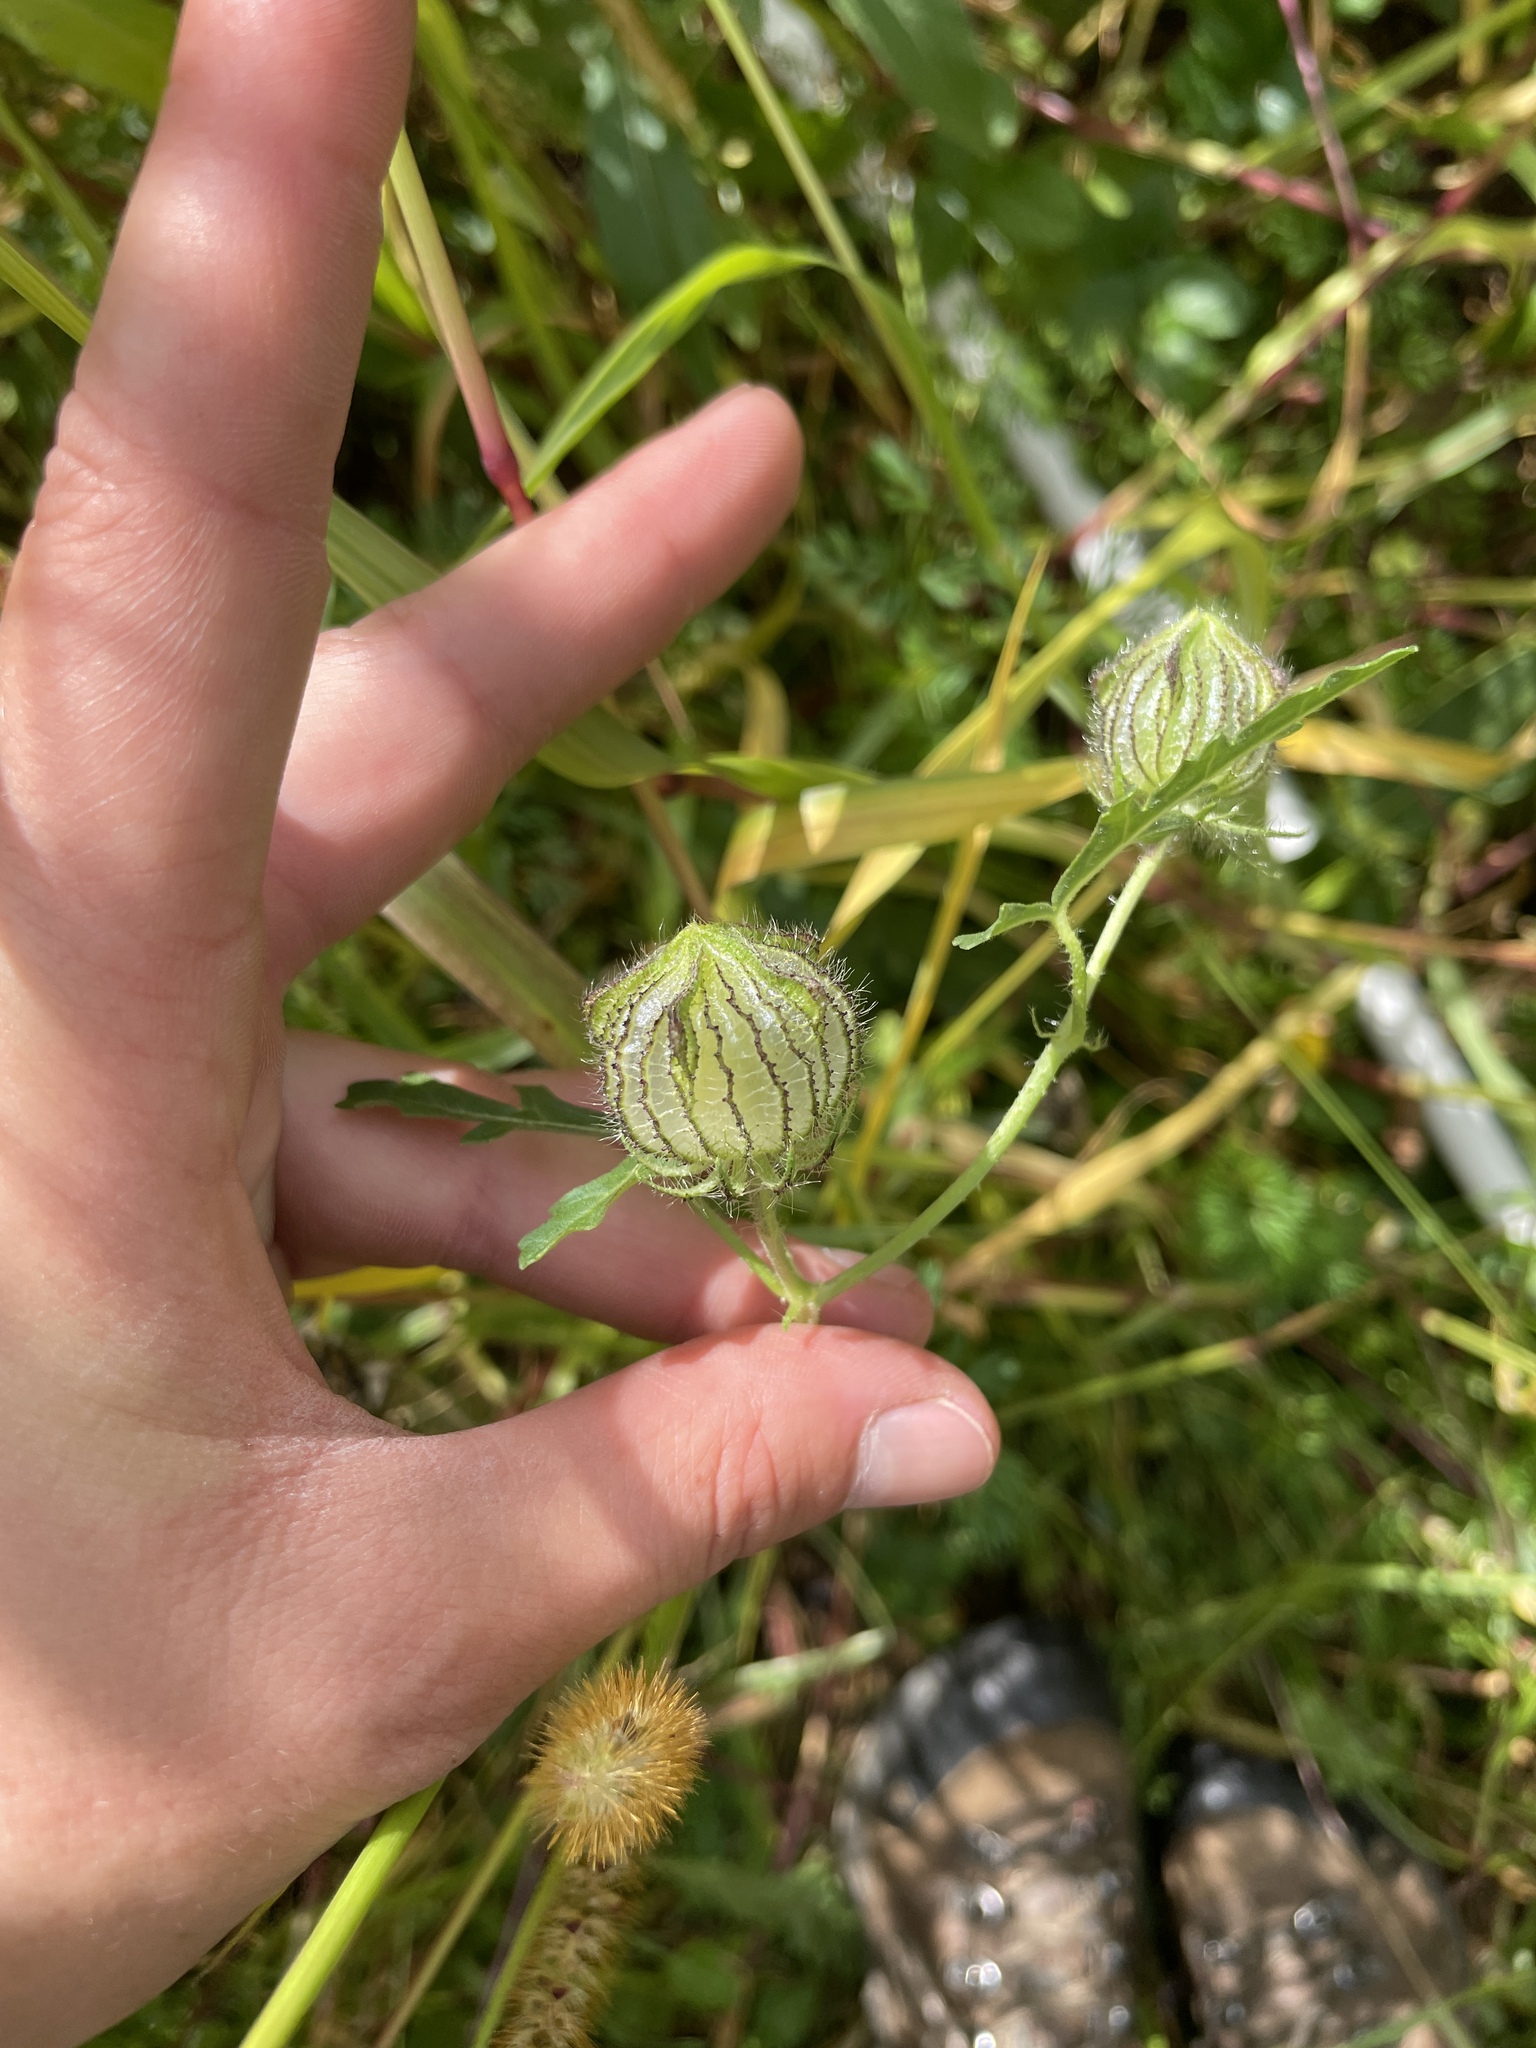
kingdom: Plantae
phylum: Tracheophyta
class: Magnoliopsida
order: Malvales
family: Malvaceae
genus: Hibiscus
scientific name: Hibiscus trionum
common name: Bladder ketmia
